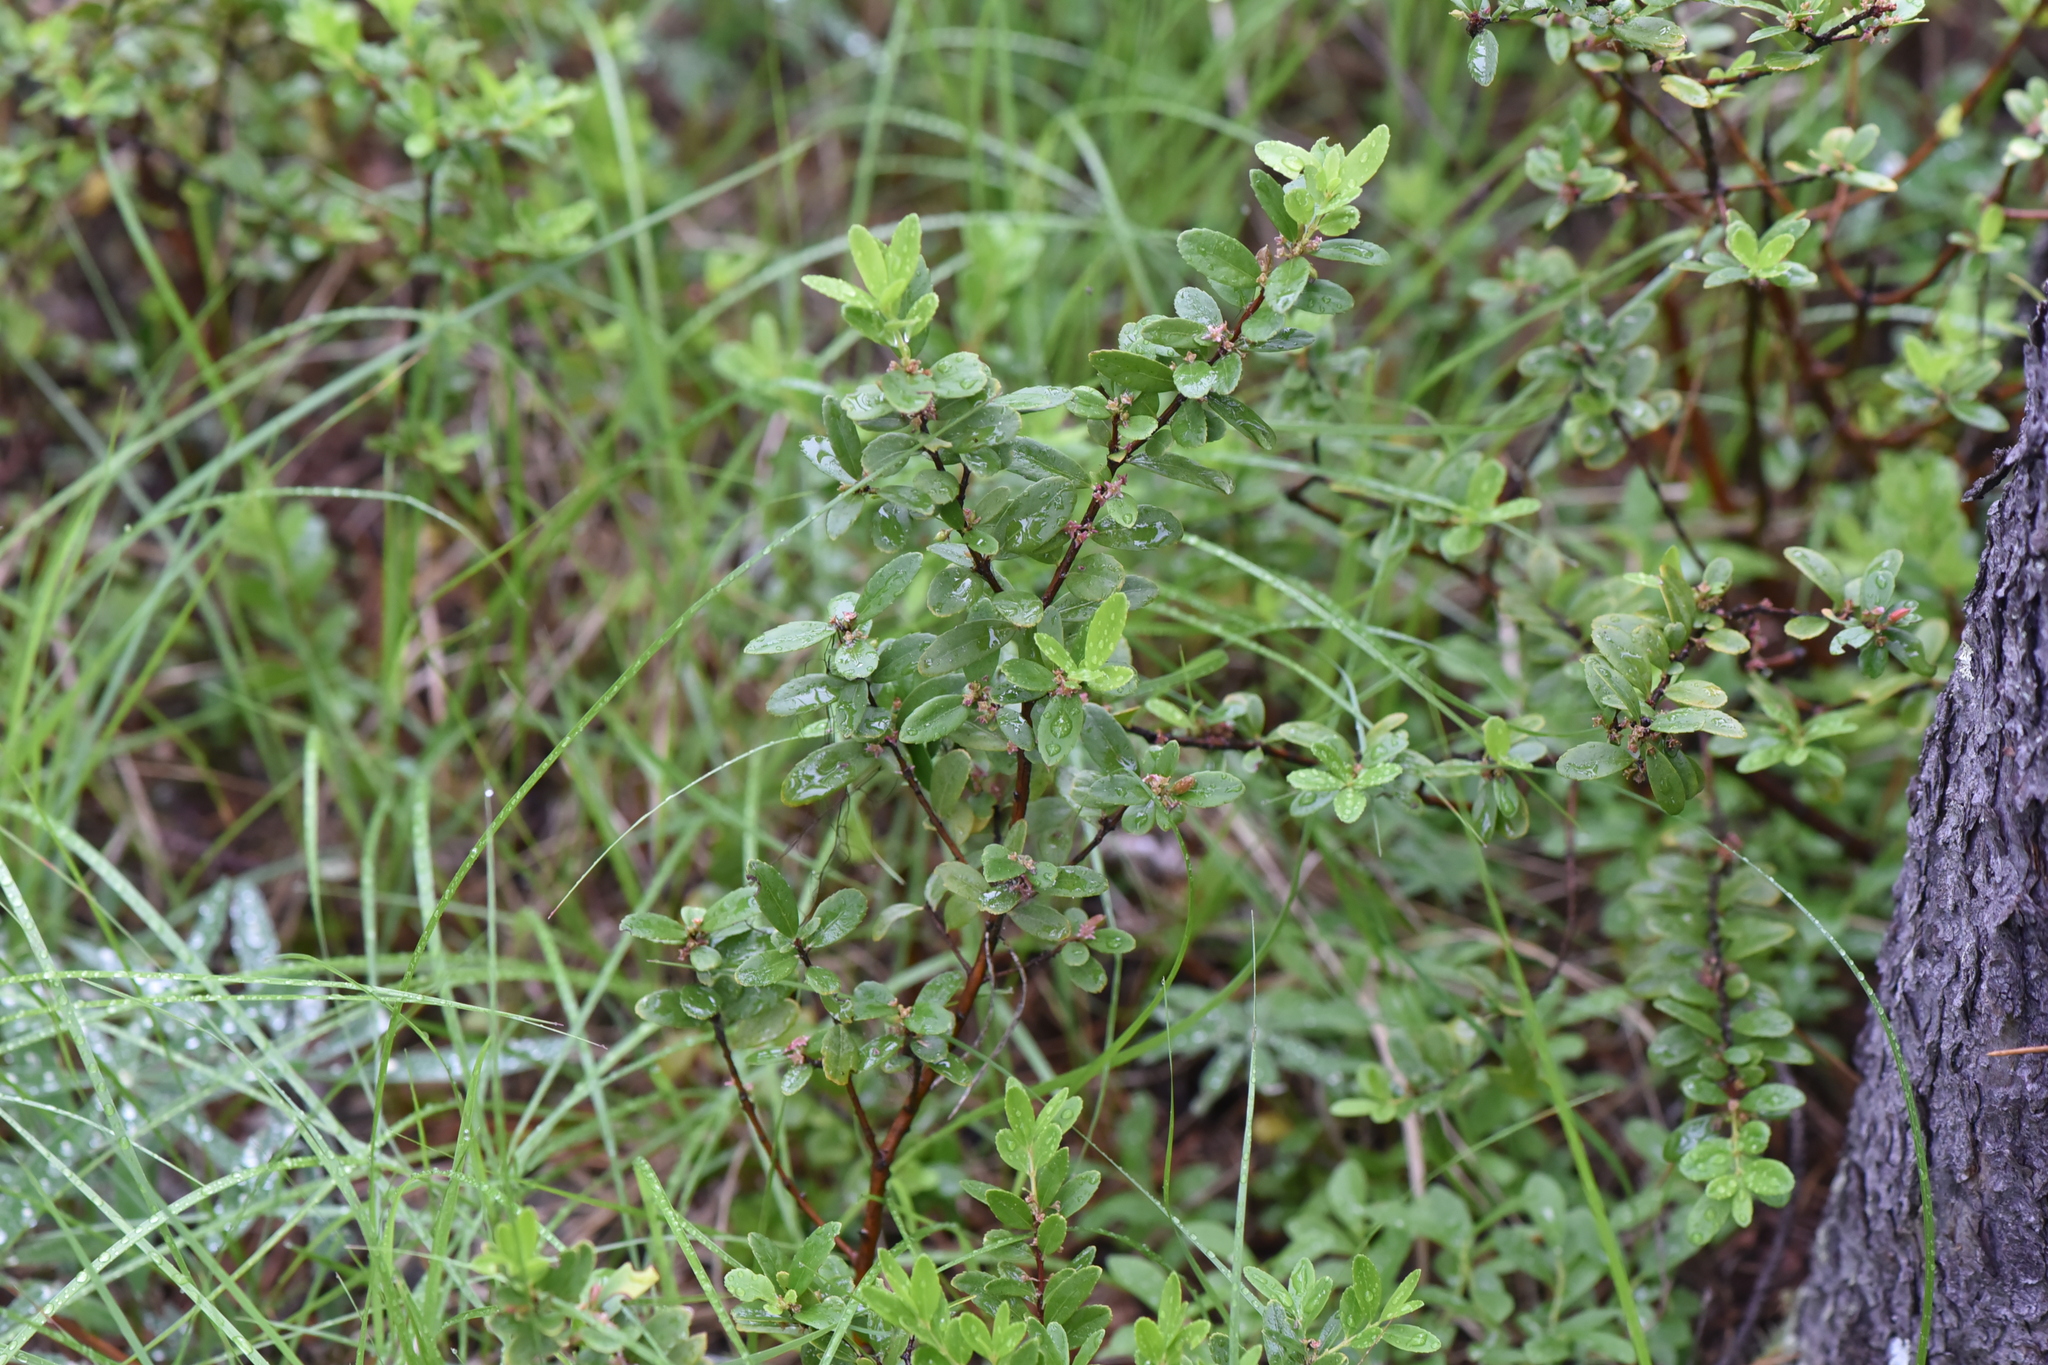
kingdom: Plantae
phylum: Tracheophyta
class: Magnoliopsida
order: Celastrales
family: Celastraceae
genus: Paxistima
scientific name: Paxistima myrsinites
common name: Mountain-lover
